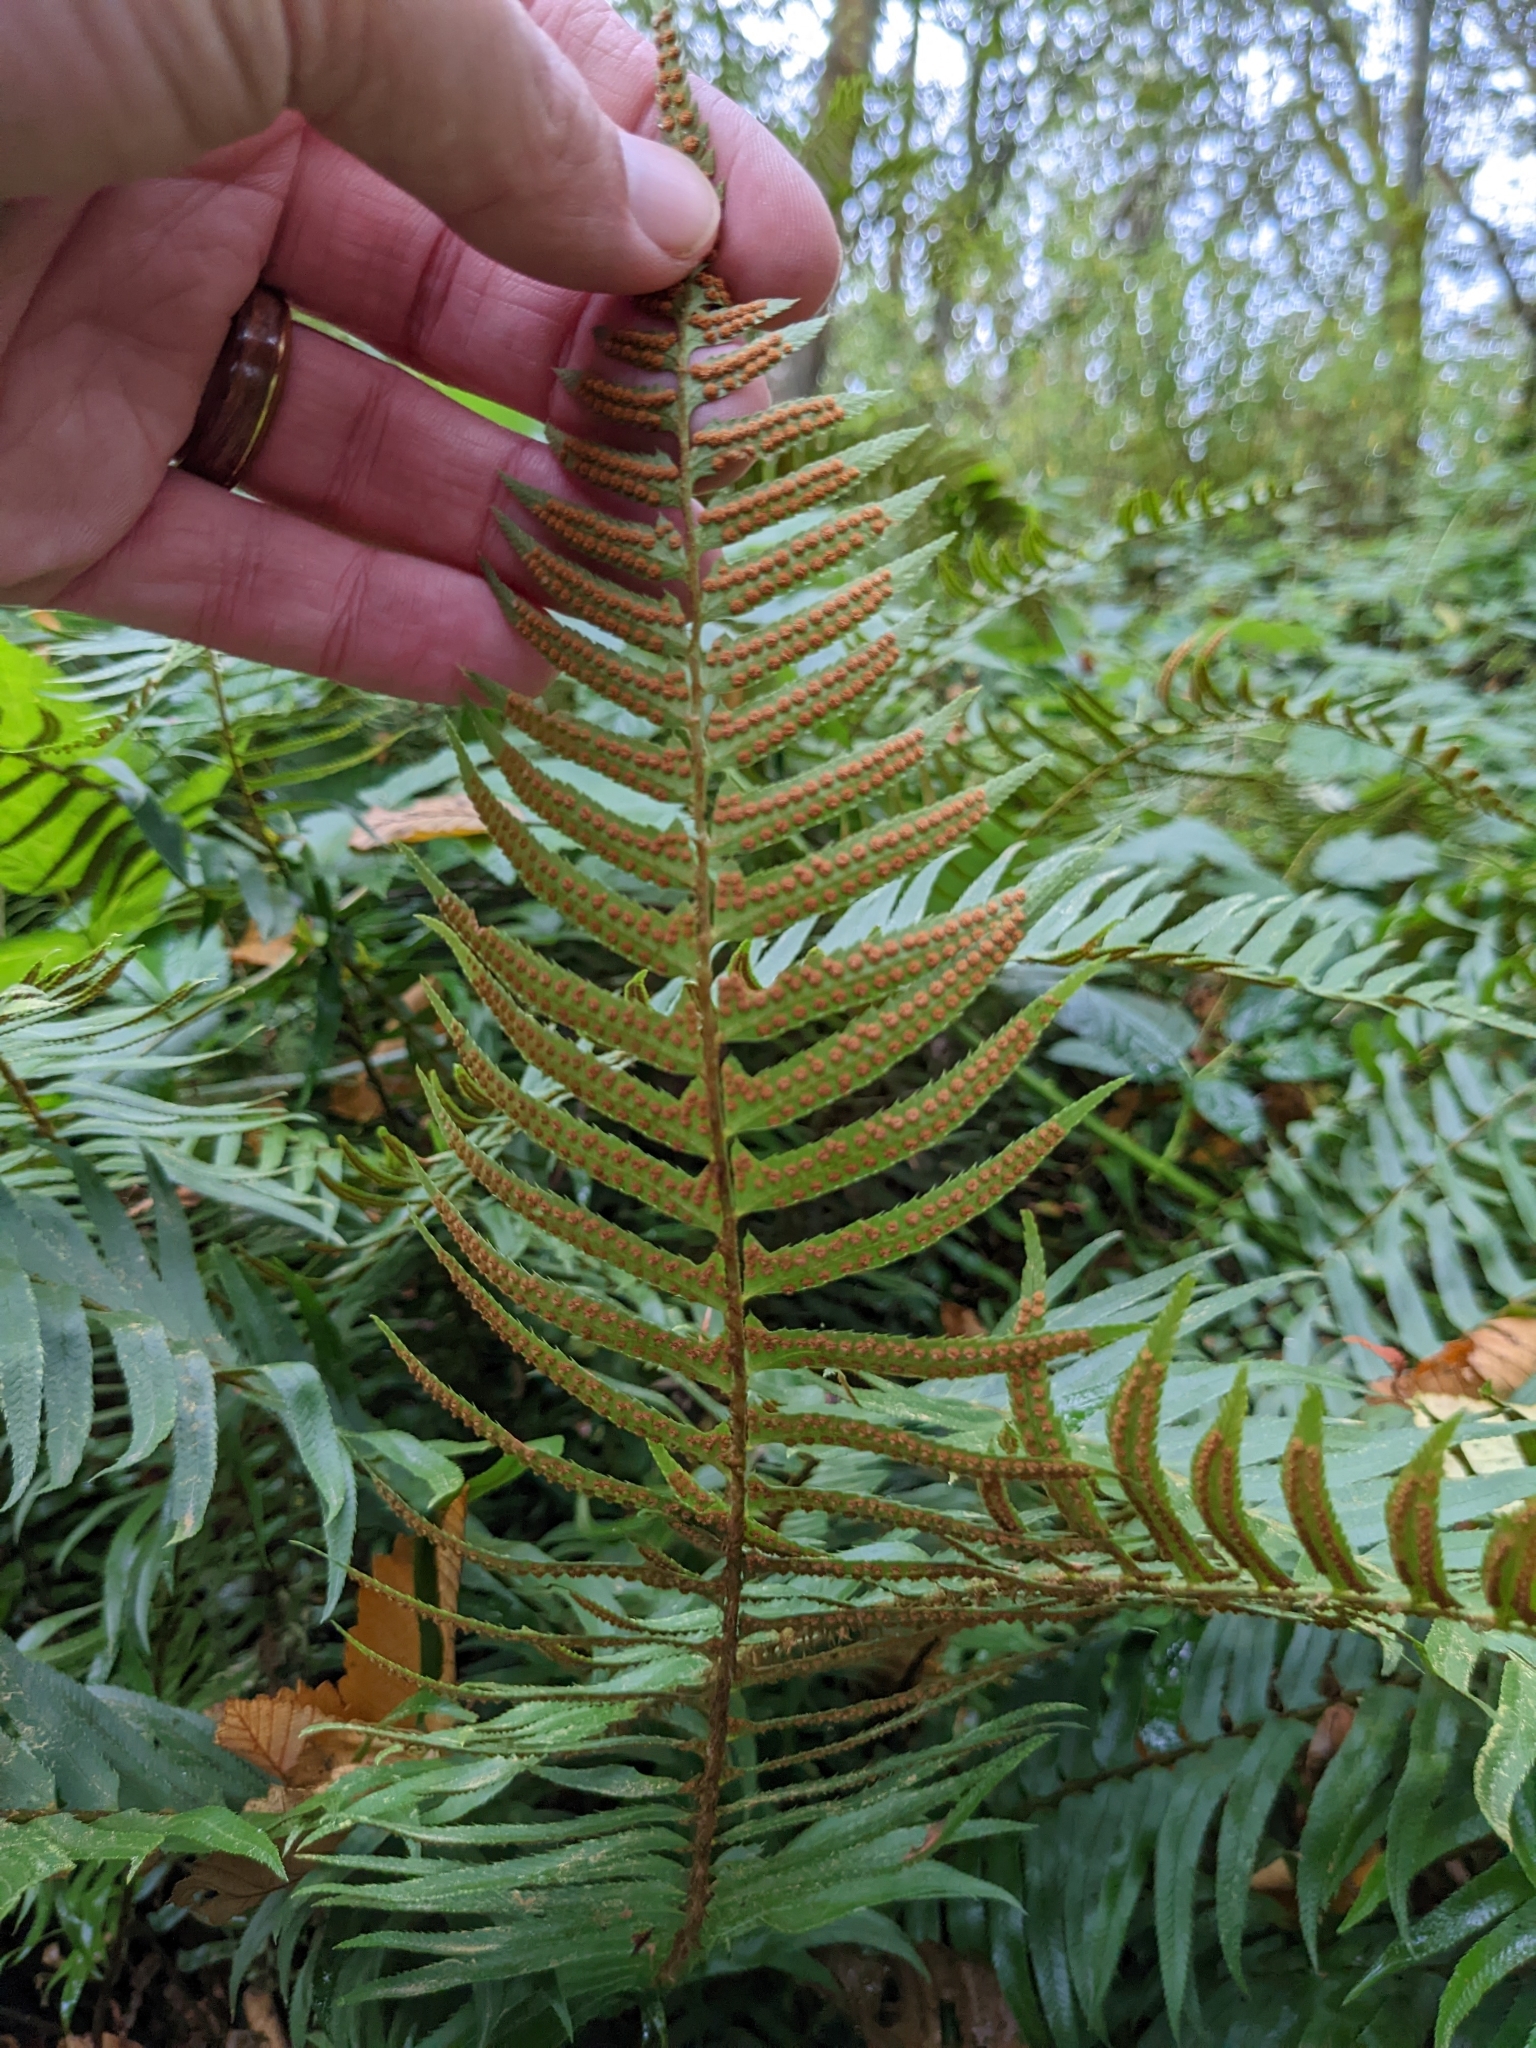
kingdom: Plantae
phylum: Tracheophyta
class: Polypodiopsida
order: Polypodiales
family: Dryopteridaceae
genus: Polystichum
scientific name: Polystichum munitum
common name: Western sword-fern
